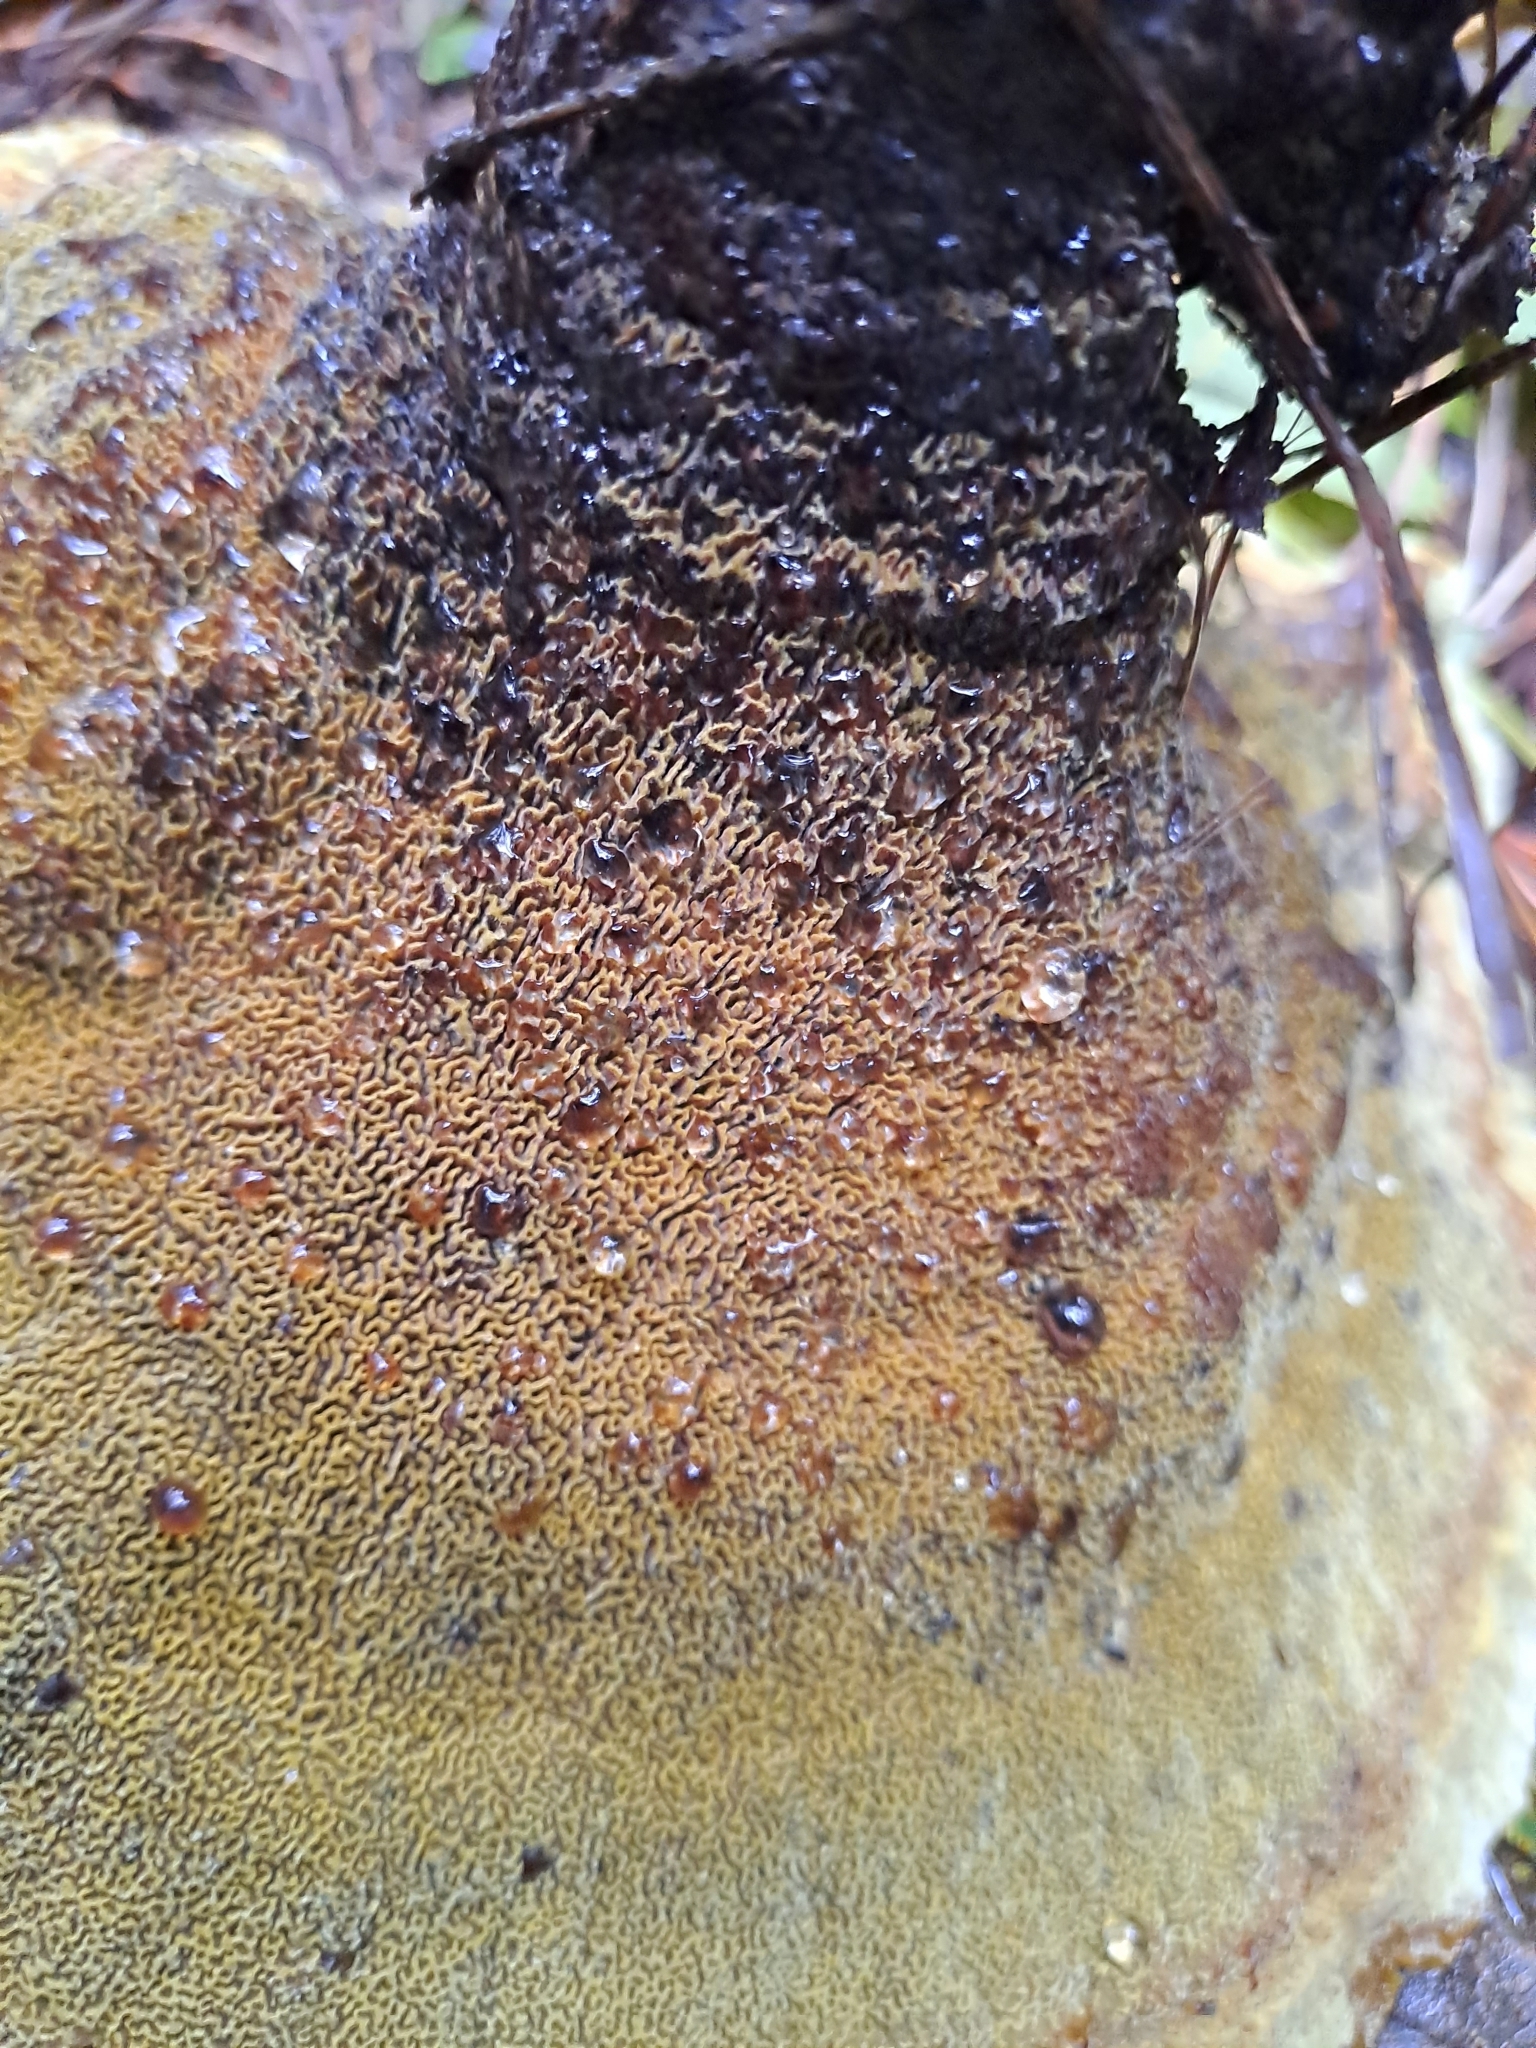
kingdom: Fungi
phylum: Basidiomycota
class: Agaricomycetes
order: Polyporales
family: Laetiporaceae
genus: Phaeolus
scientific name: Phaeolus schweinitzii
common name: Dyer's mazegill
